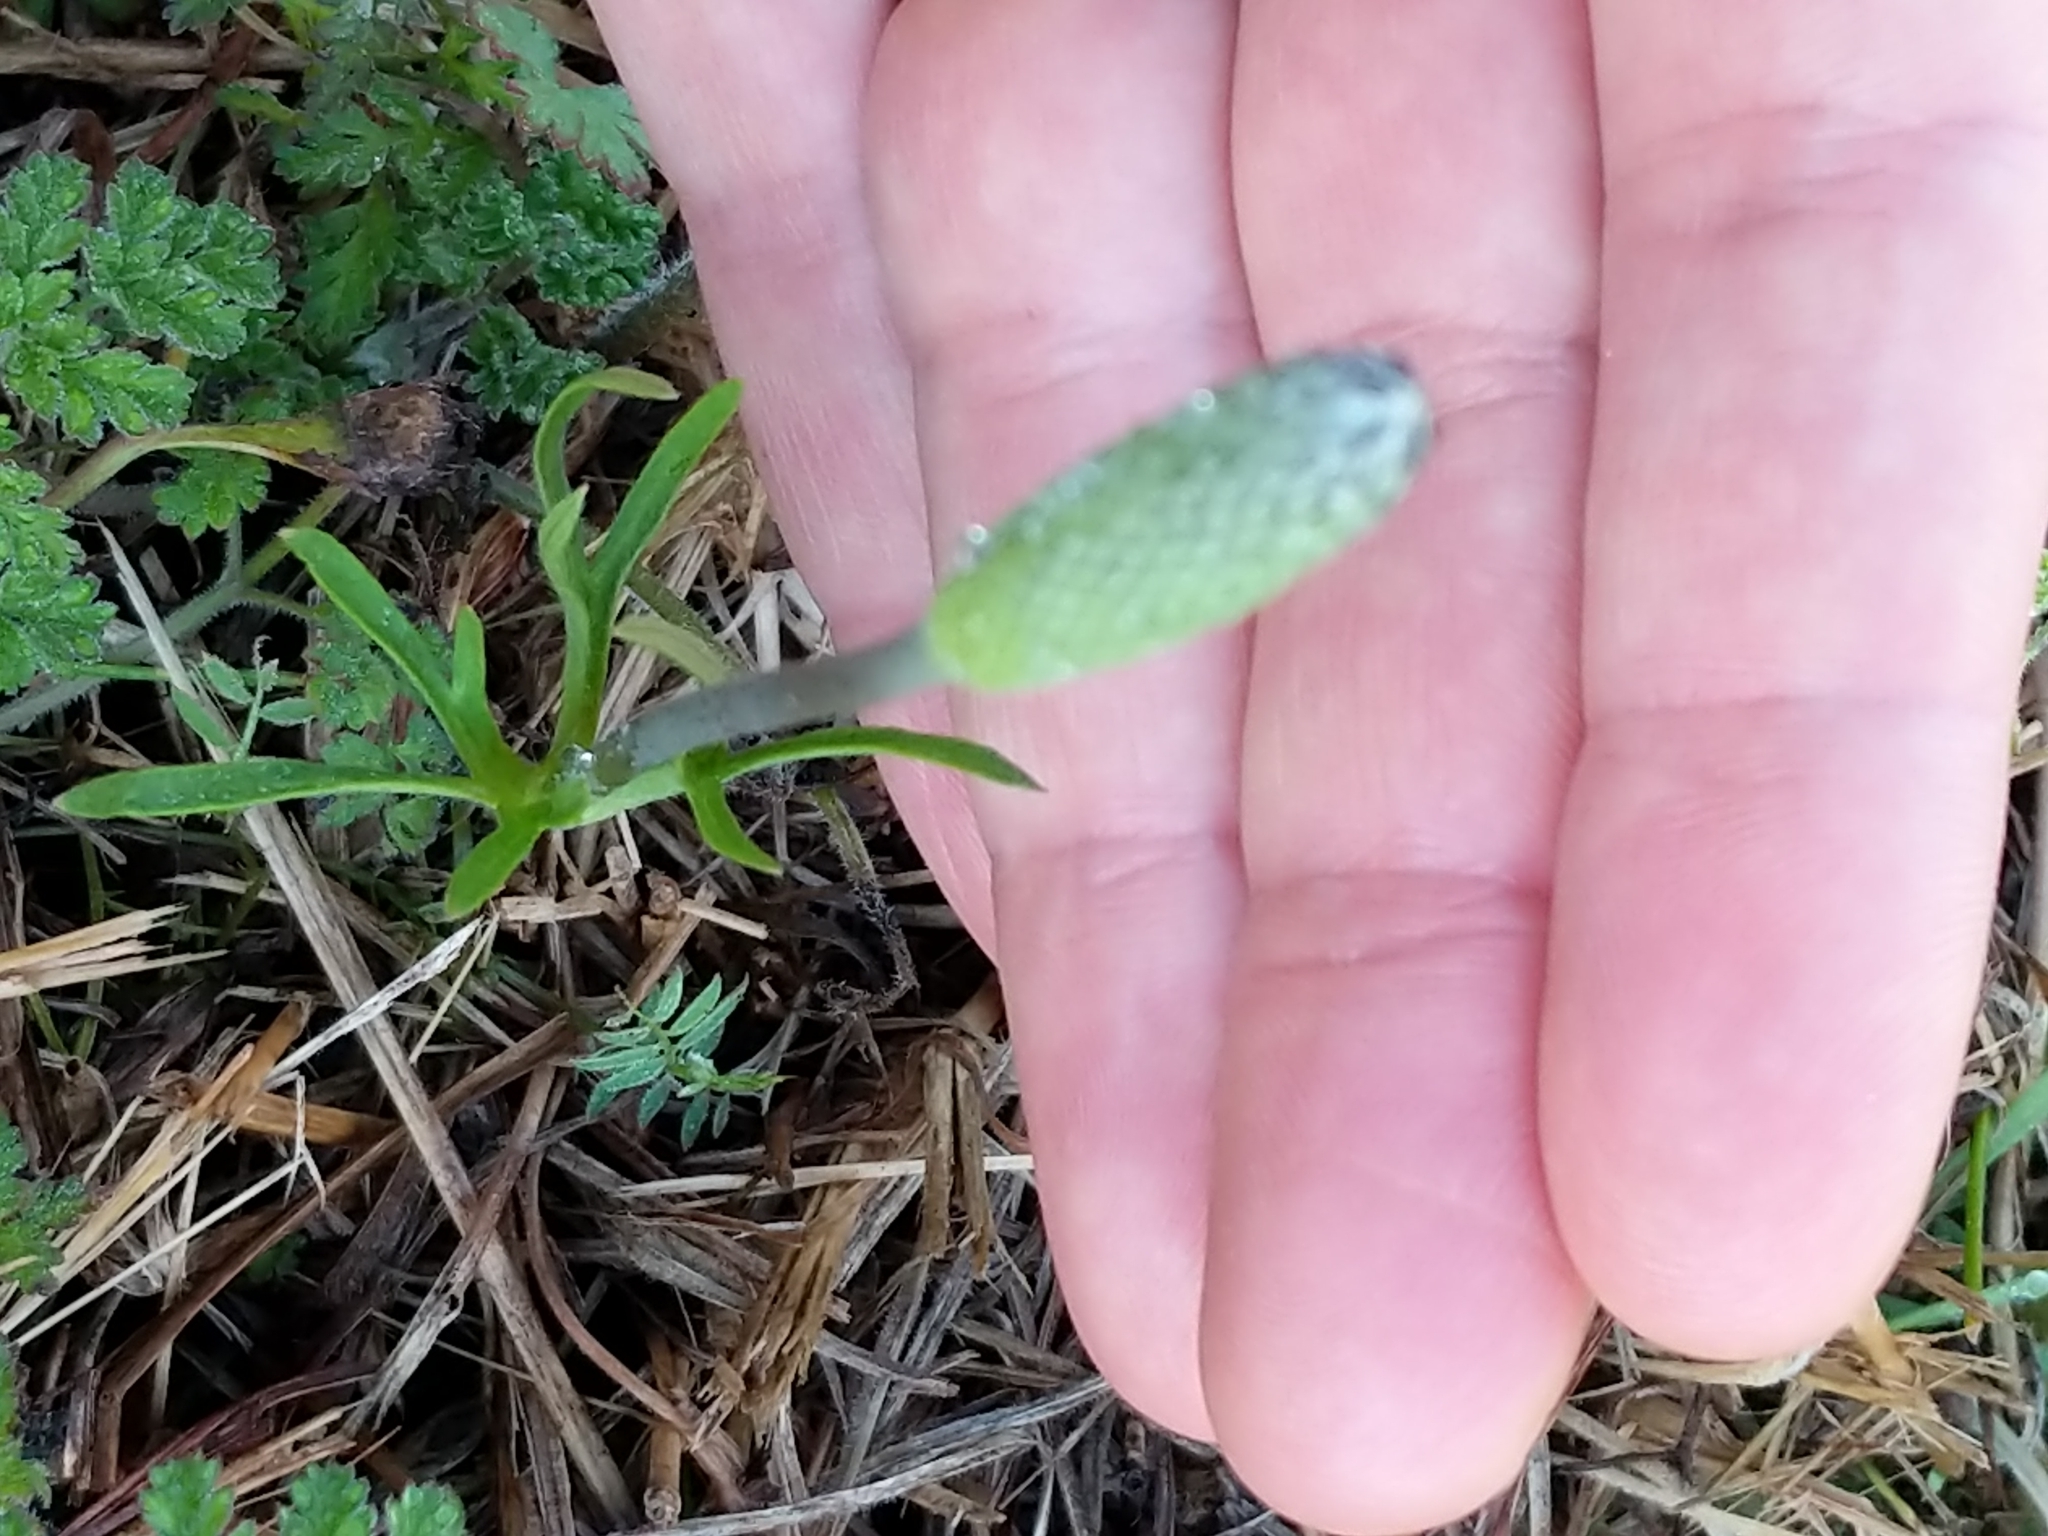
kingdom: Plantae
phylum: Tracheophyta
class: Magnoliopsida
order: Ranunculales
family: Ranunculaceae
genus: Anemone
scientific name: Anemone berlandieri
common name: Ten-petal anemone
